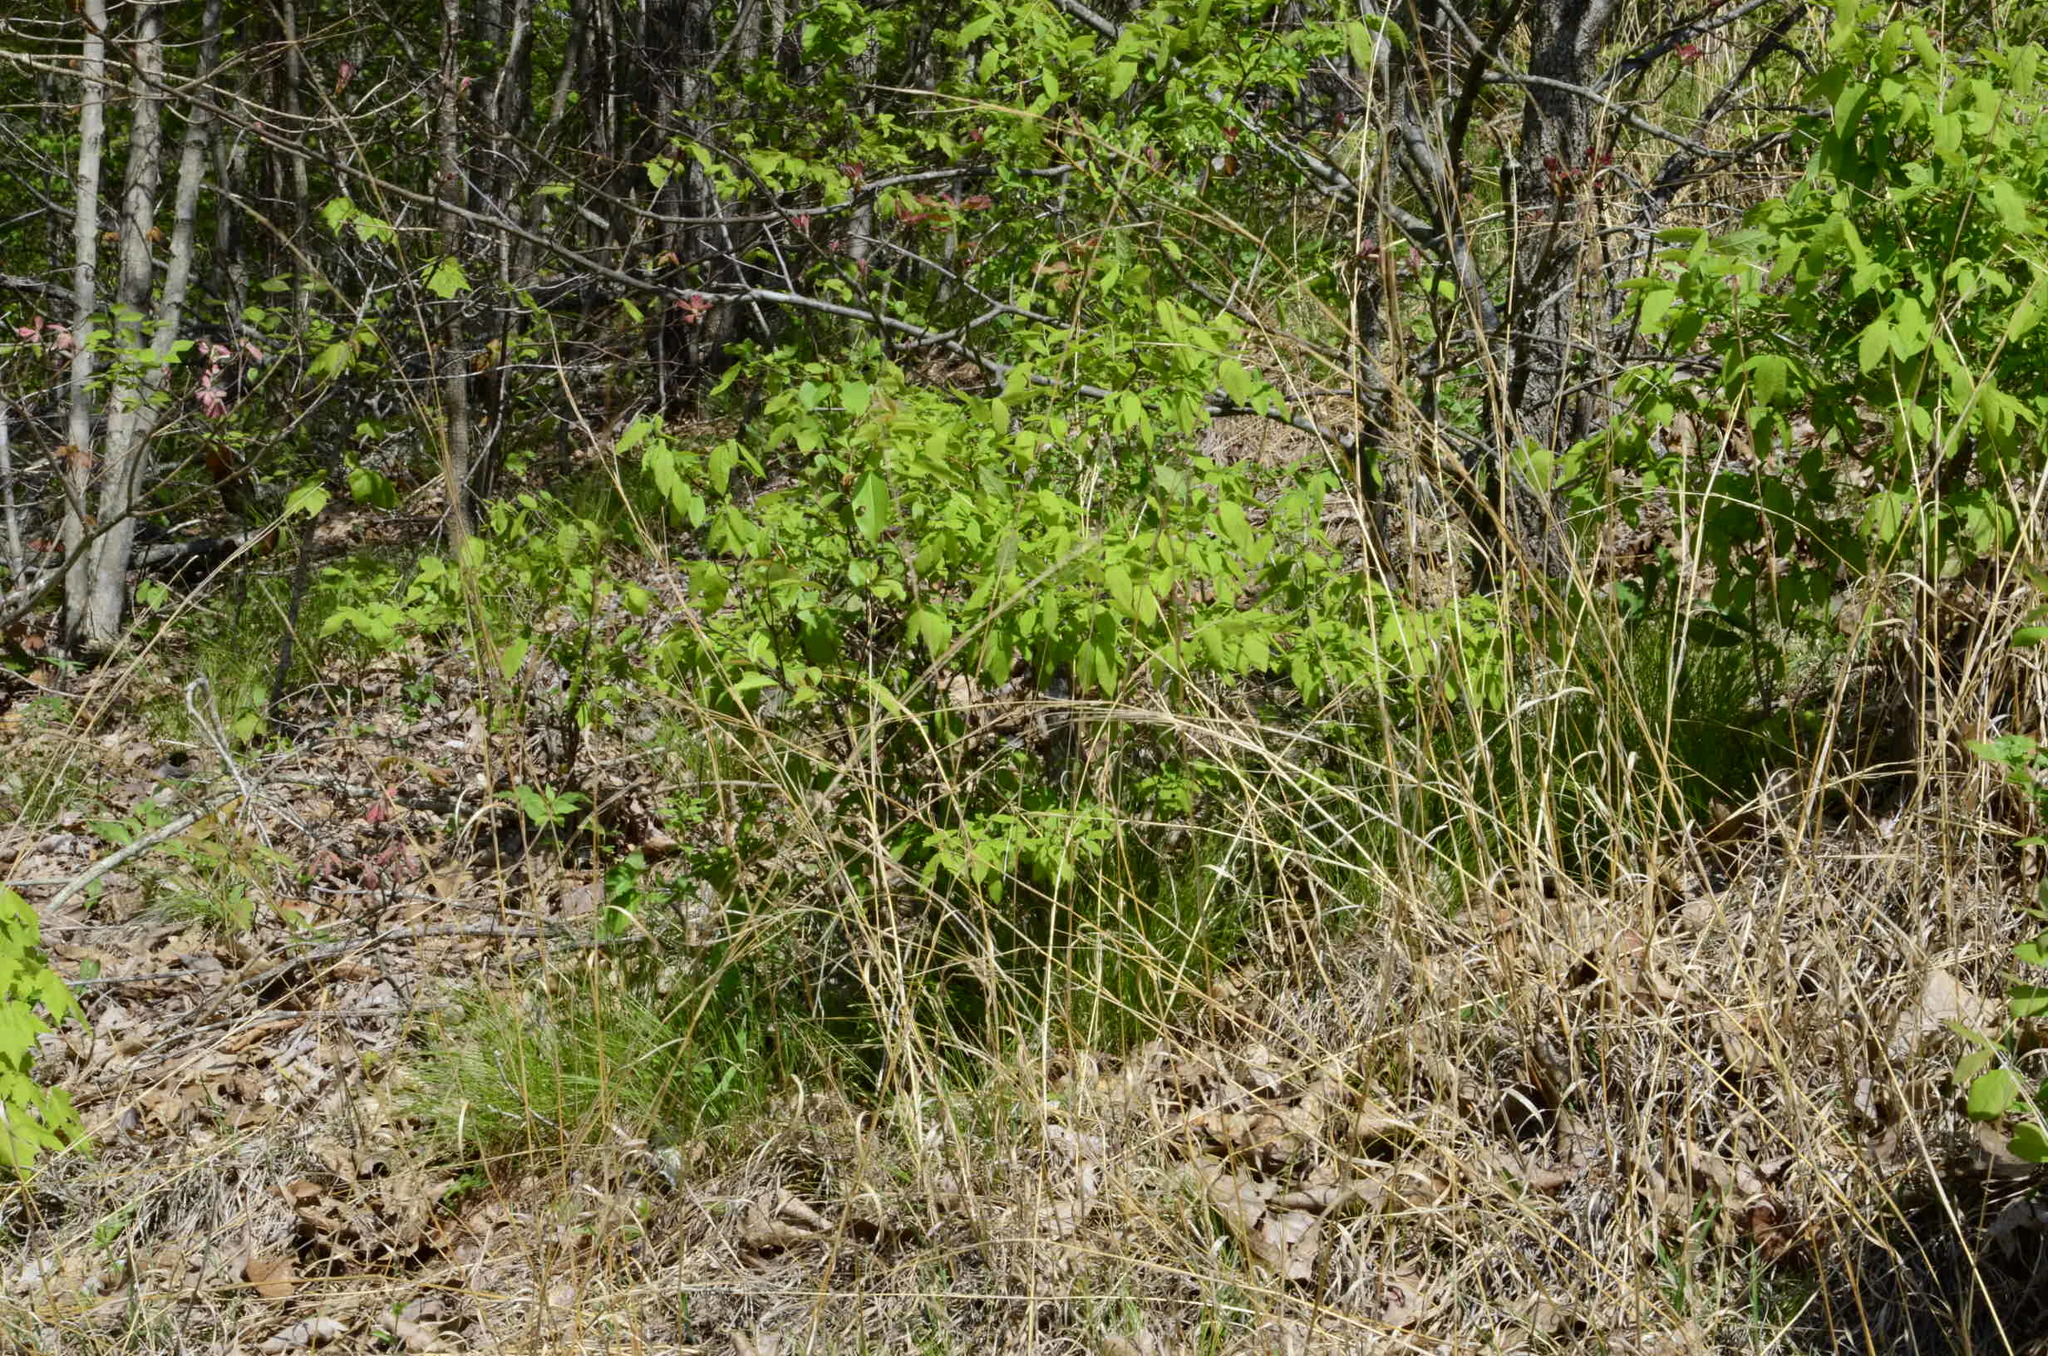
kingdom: Plantae
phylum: Tracheophyta
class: Liliopsida
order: Poales
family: Cyperaceae
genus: Trichophorum
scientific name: Trichophorum planifolium
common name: Bashful bulrush
